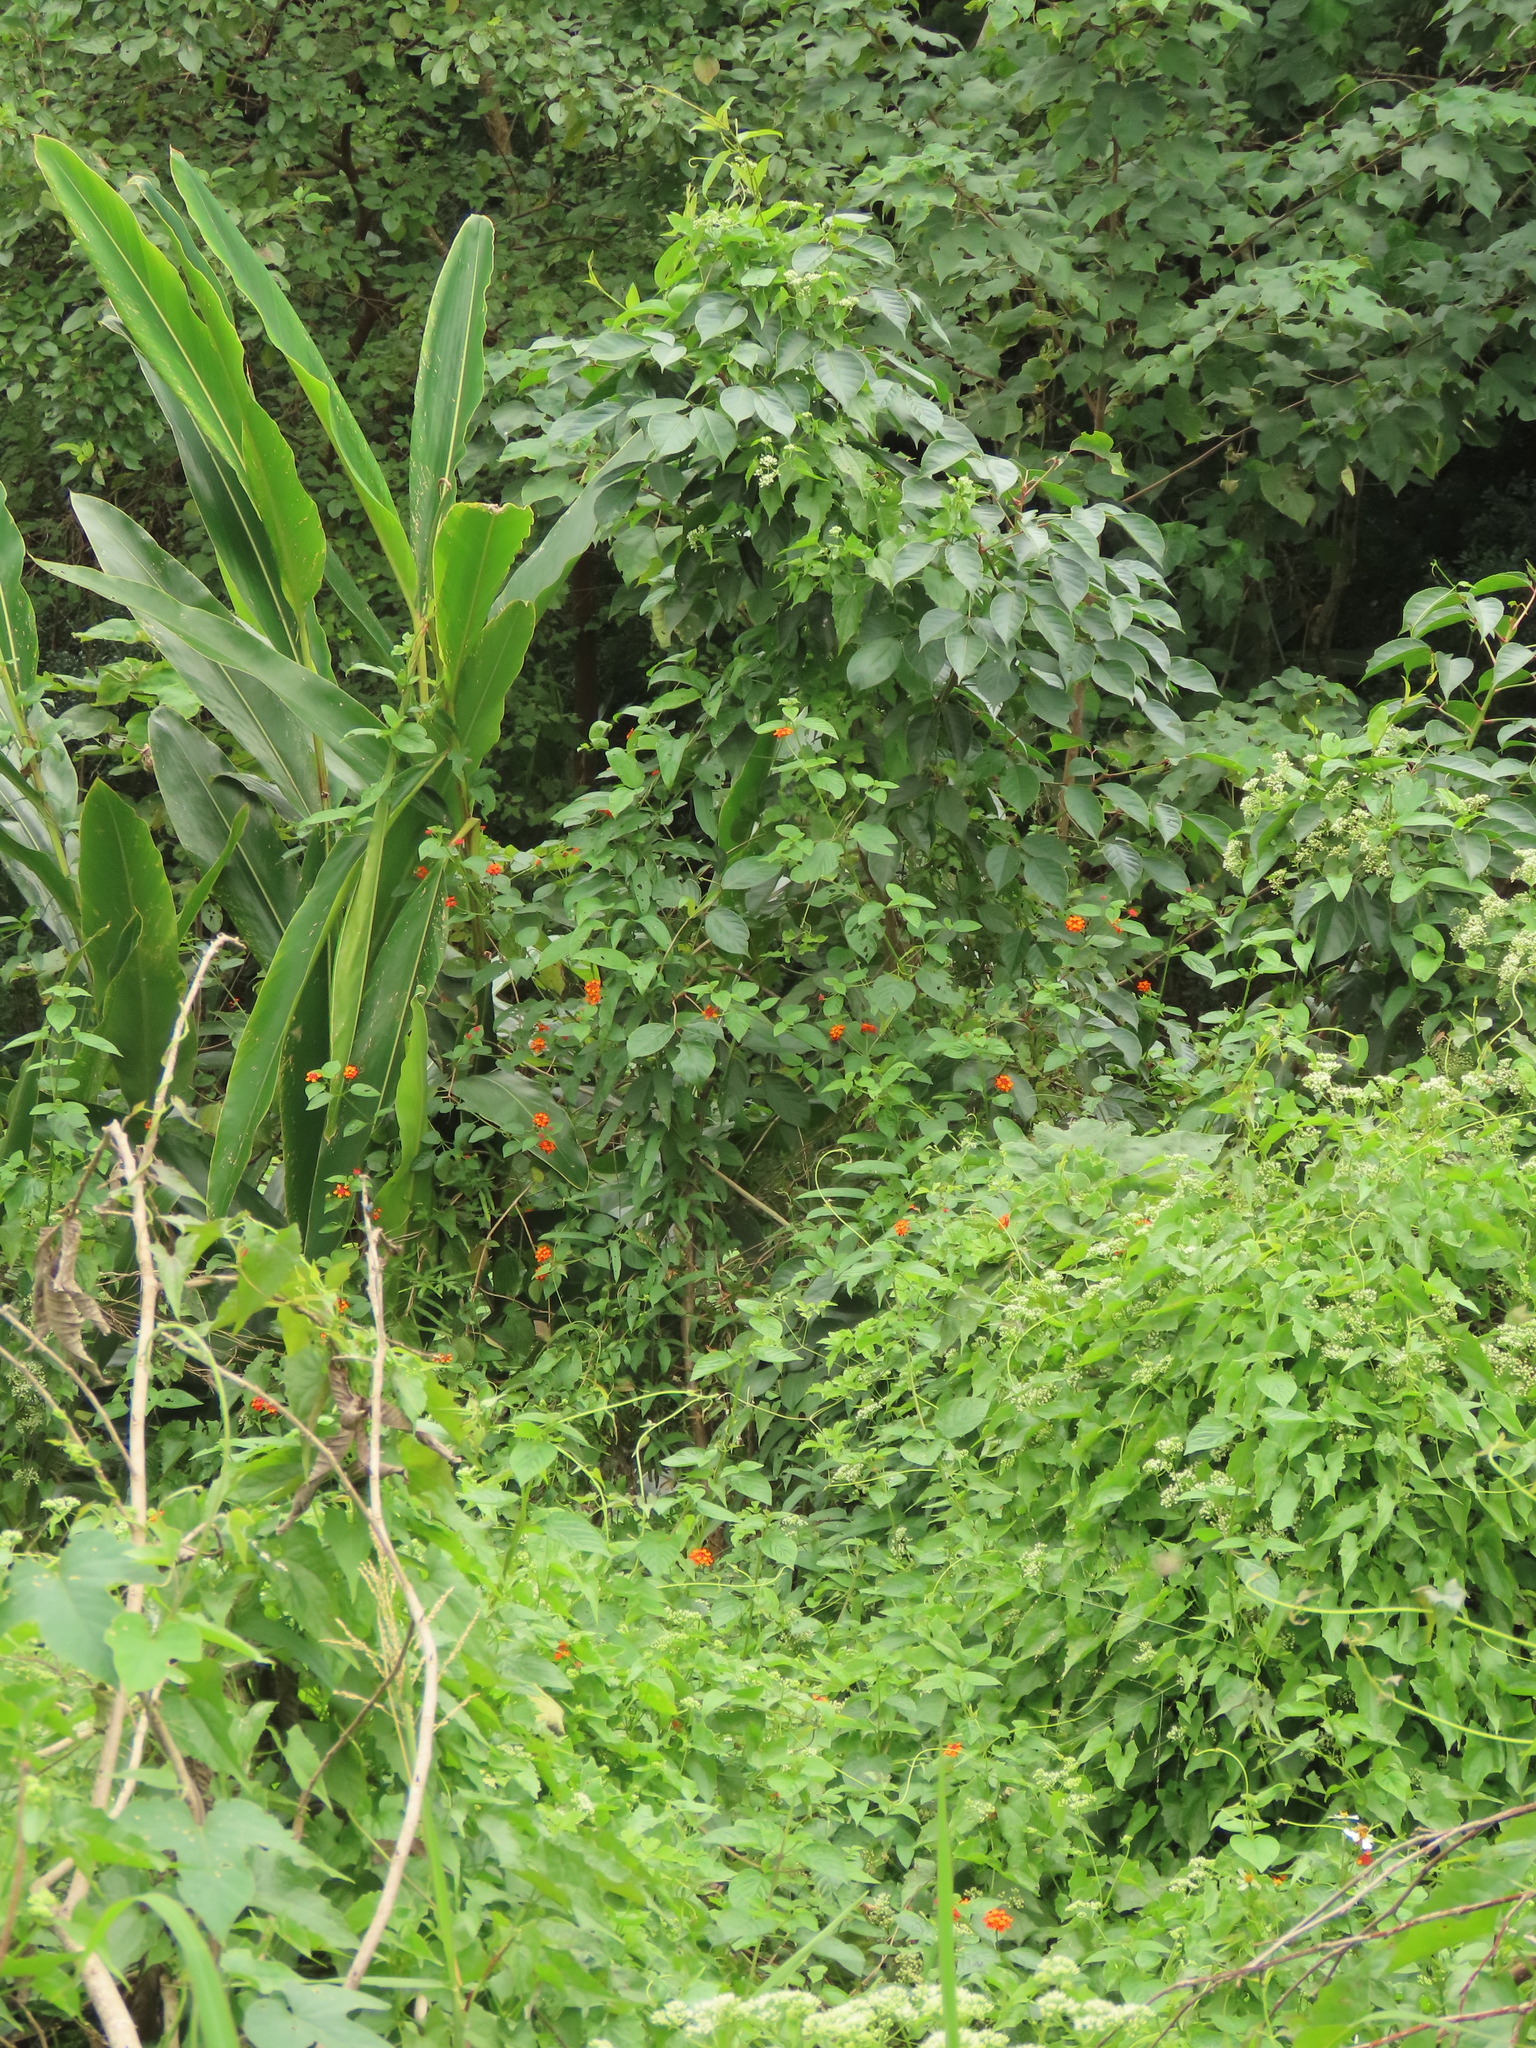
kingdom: Plantae
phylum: Tracheophyta
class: Magnoliopsida
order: Lamiales
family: Verbenaceae
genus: Lantana
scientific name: Lantana camara
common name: Lantana
